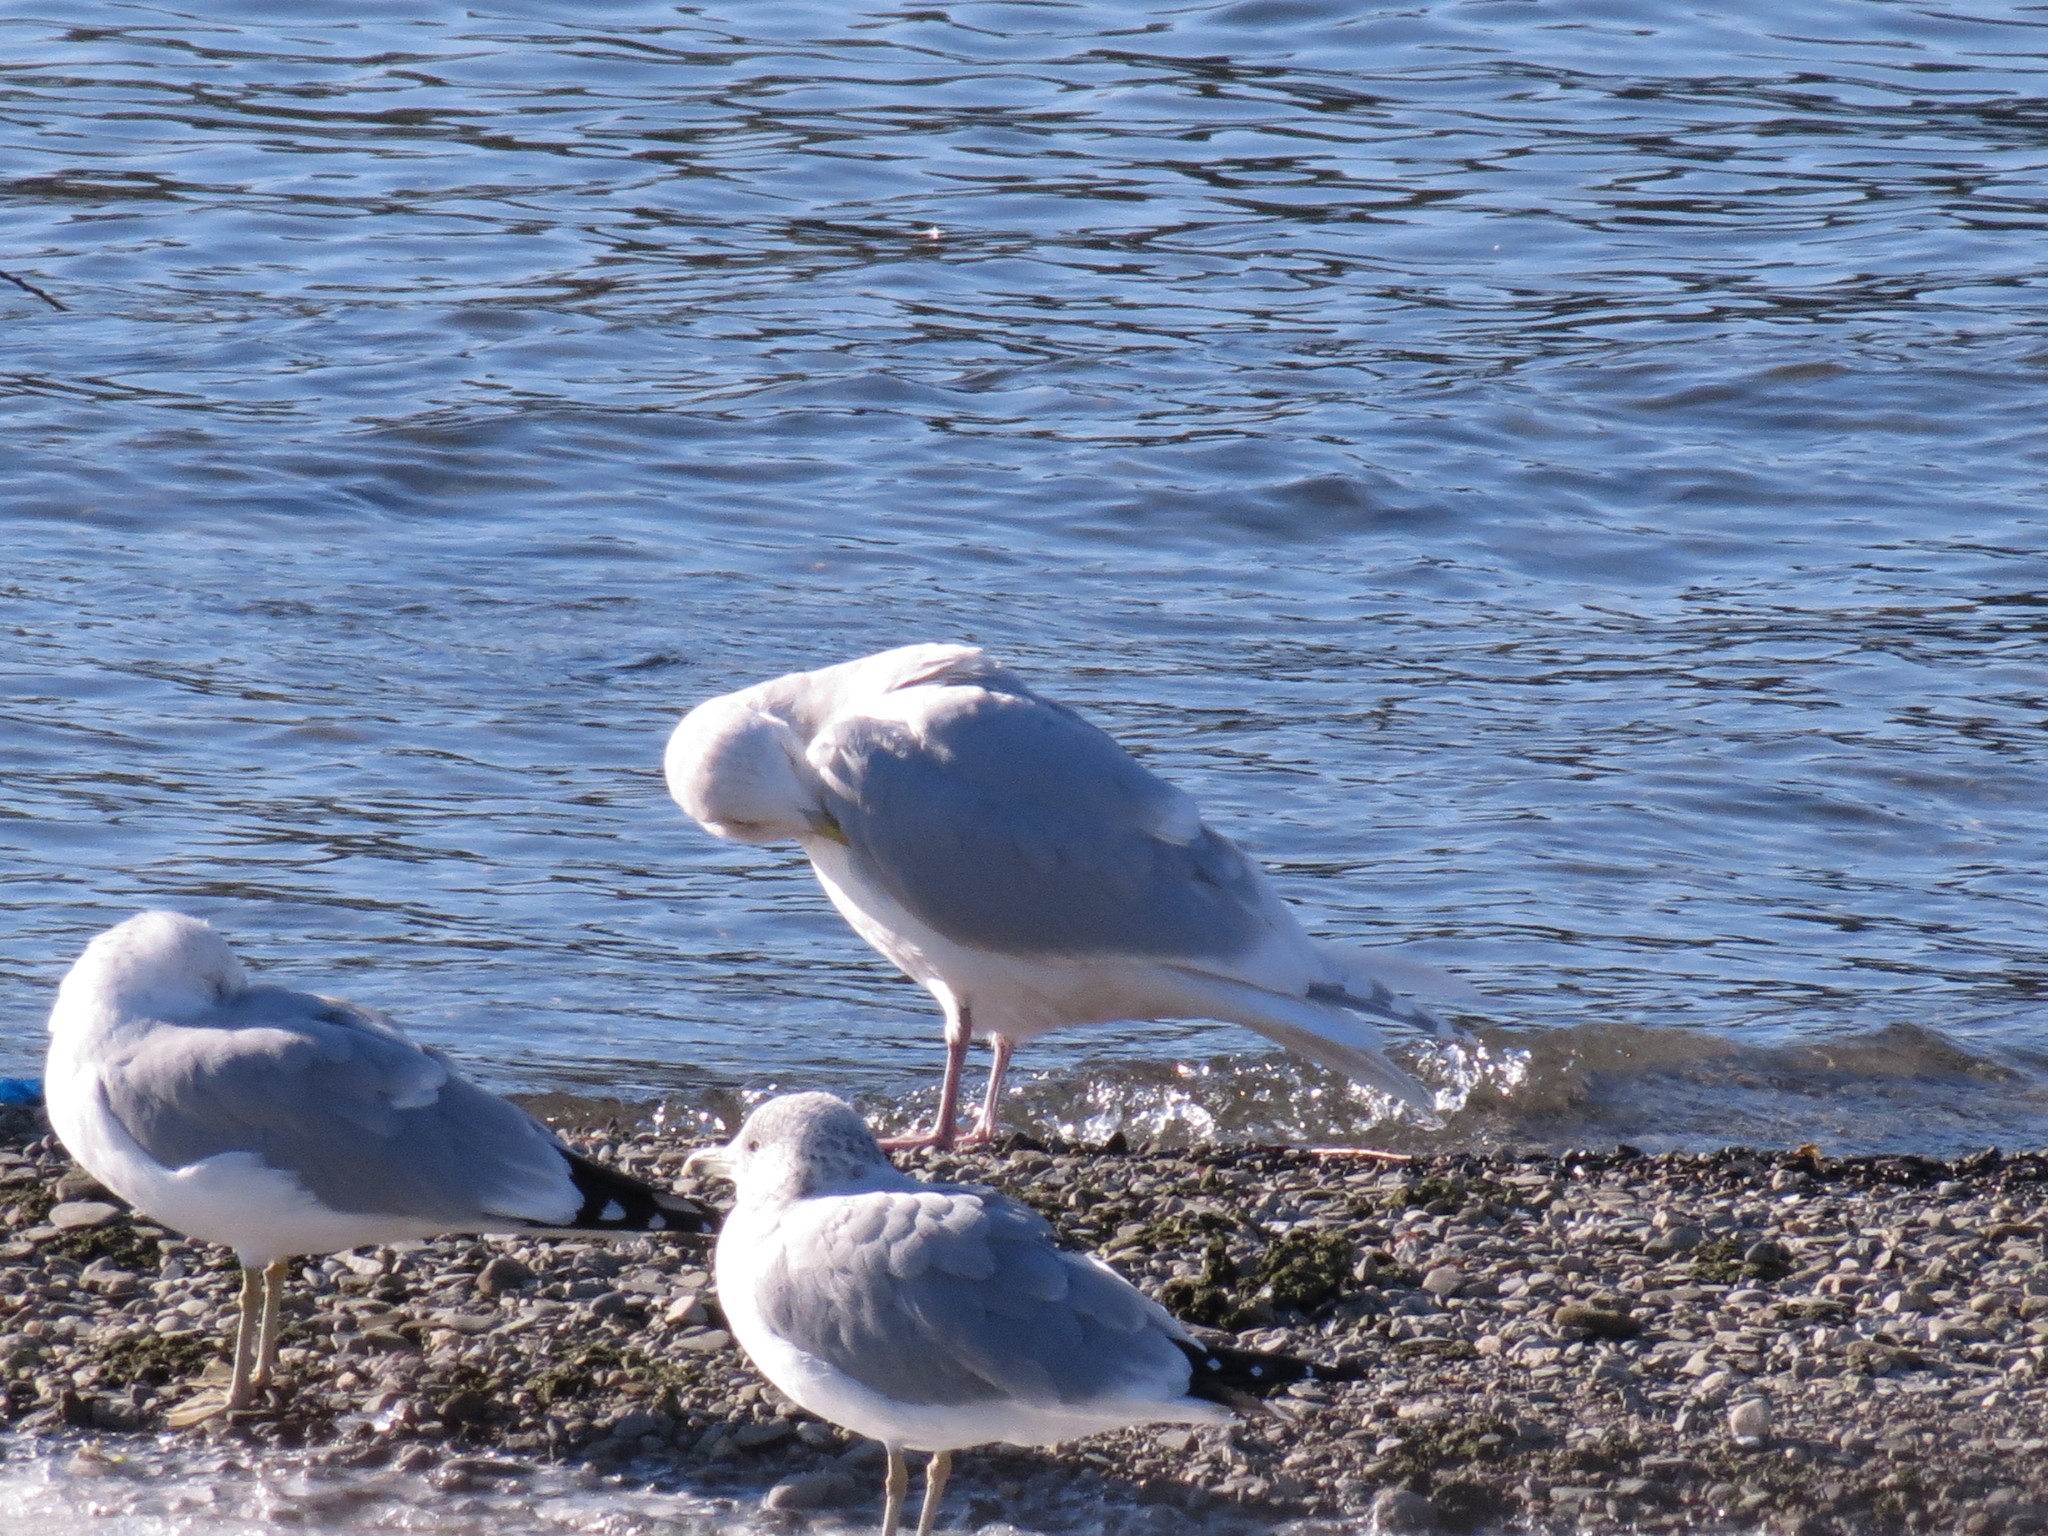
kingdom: Animalia
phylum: Chordata
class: Aves
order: Charadriiformes
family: Laridae
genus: Larus
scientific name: Larus glaucoides
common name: Iceland gull
